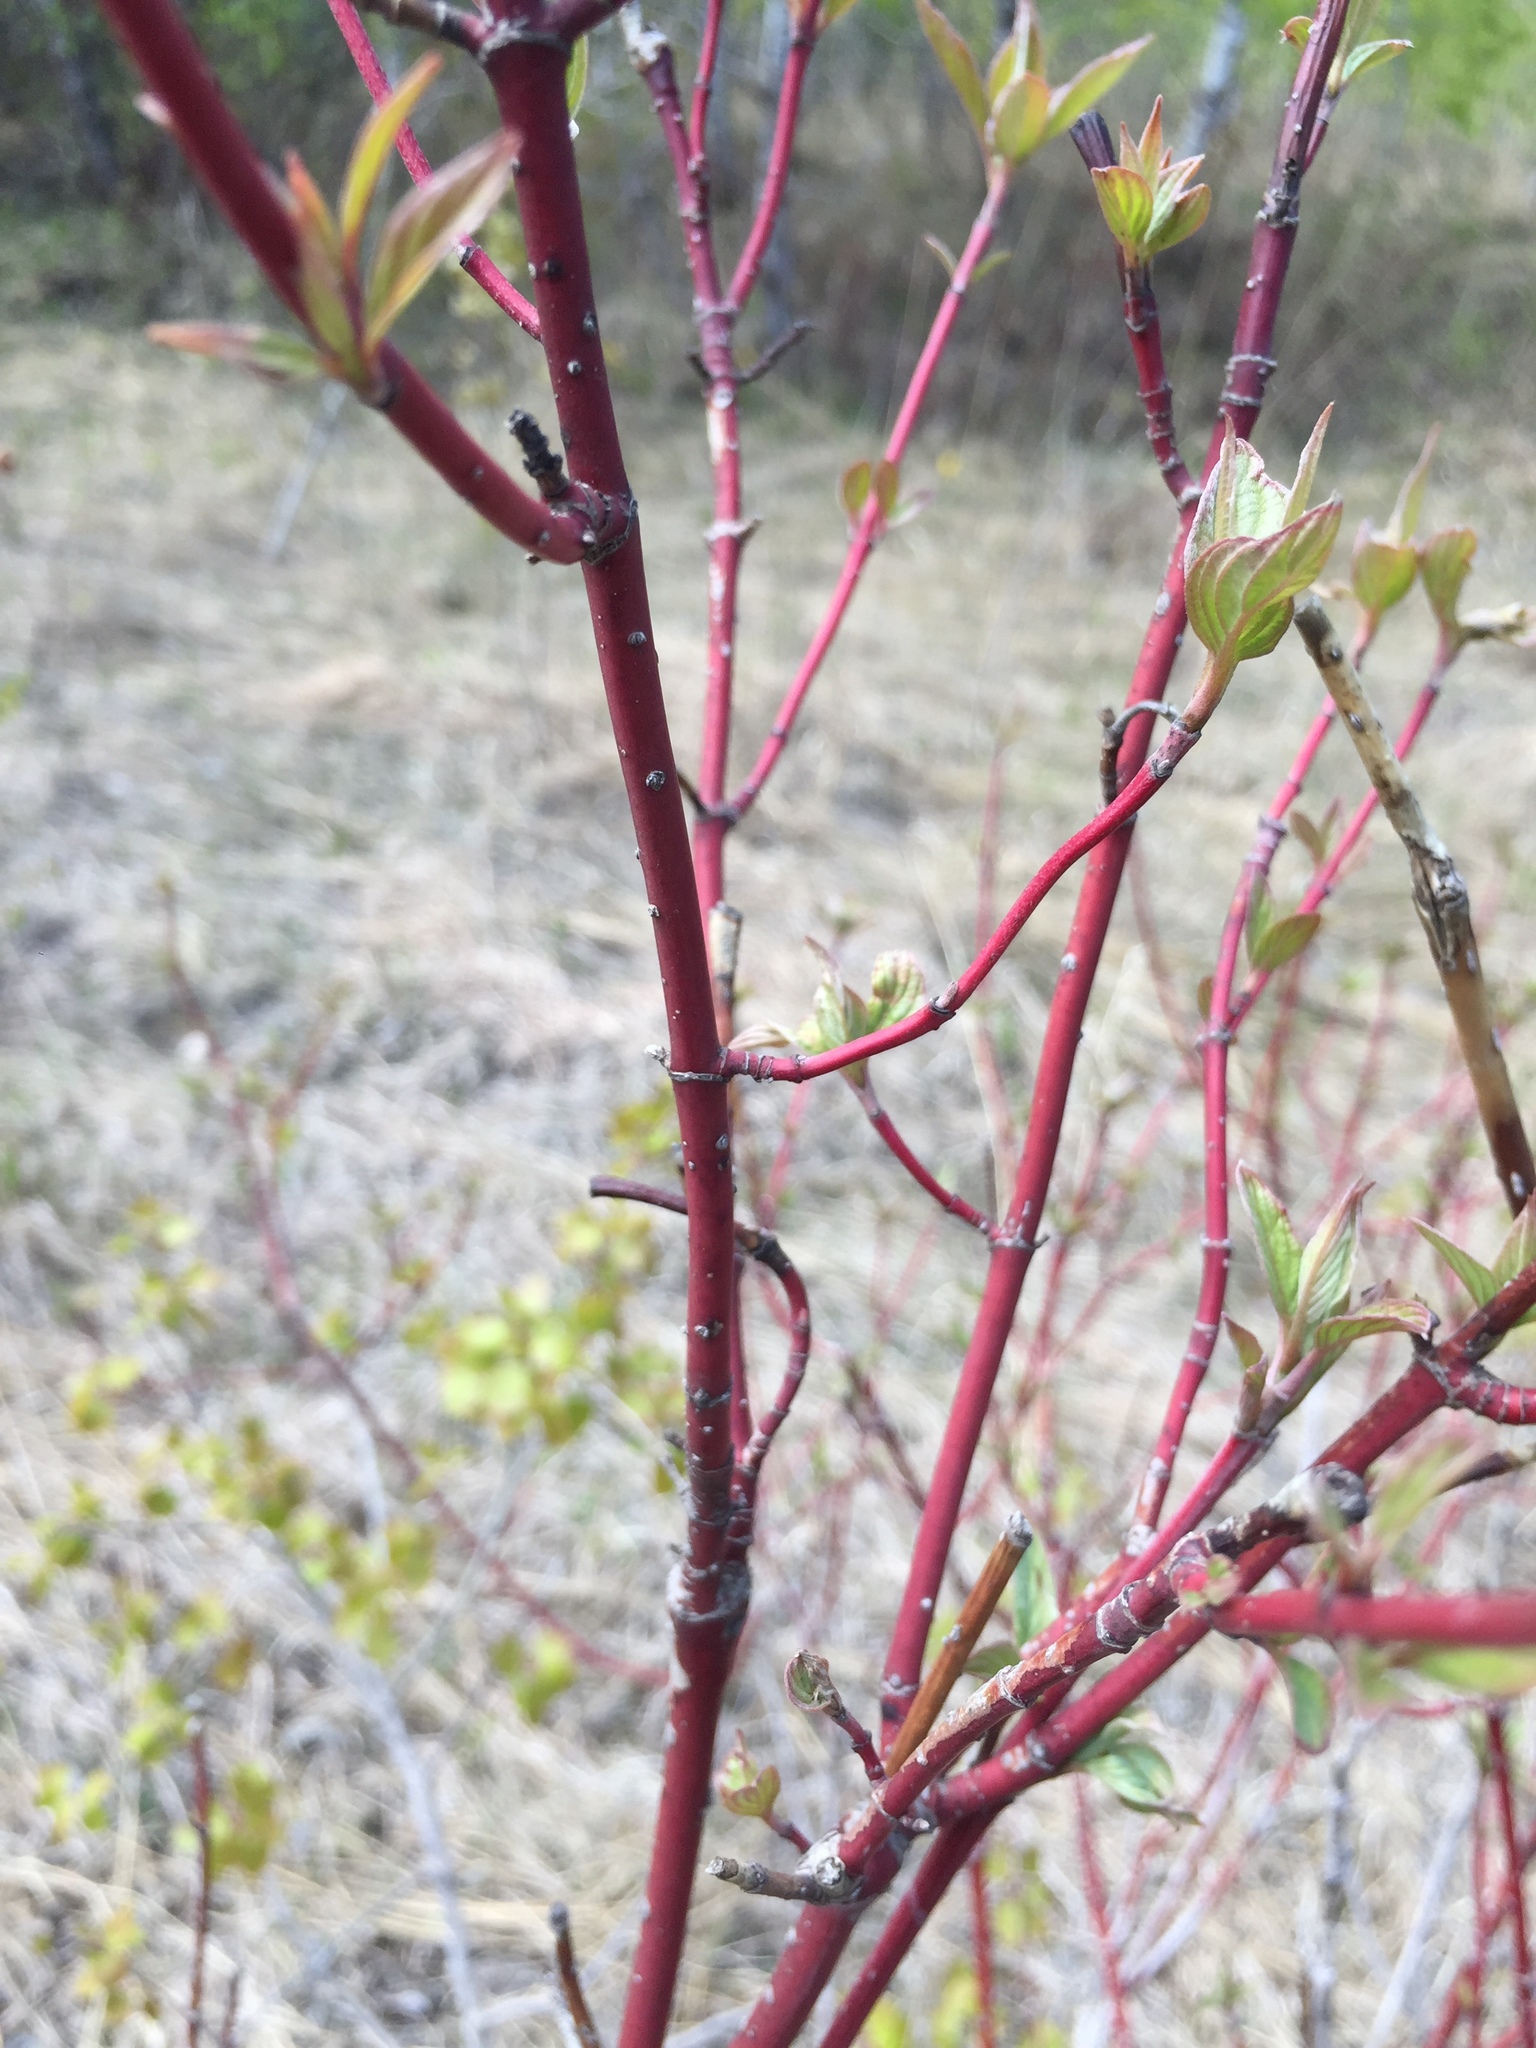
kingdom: Plantae
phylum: Tracheophyta
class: Magnoliopsida
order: Cornales
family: Cornaceae
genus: Cornus
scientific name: Cornus sericea
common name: Red-osier dogwood
